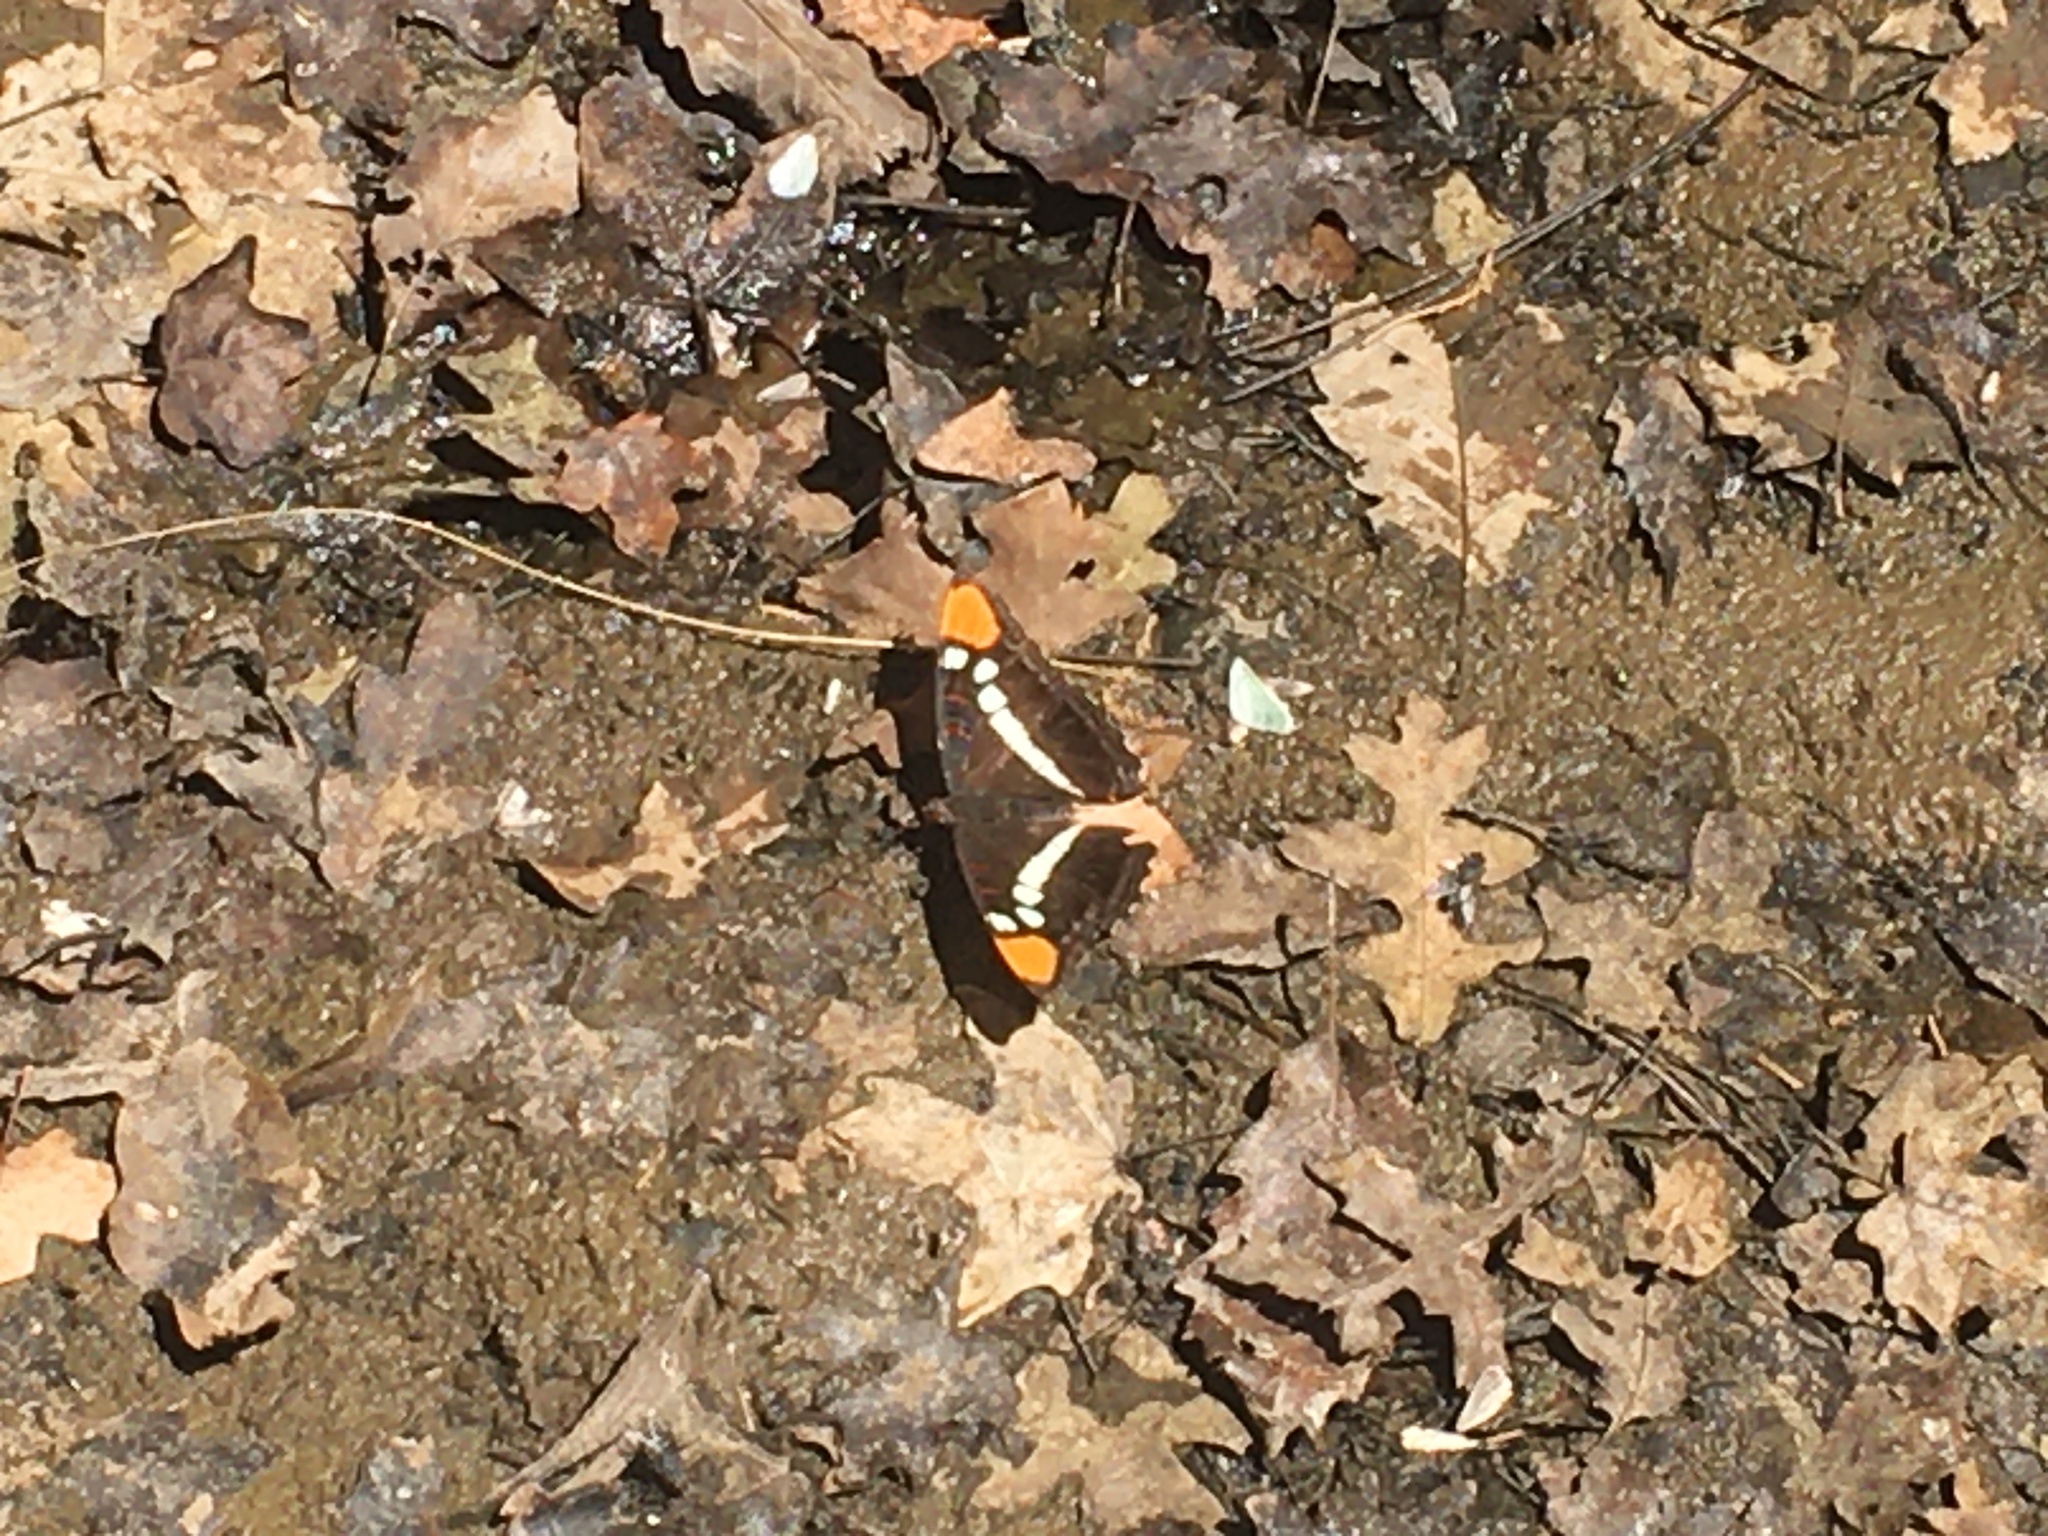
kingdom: Animalia
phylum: Arthropoda
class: Insecta
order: Lepidoptera
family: Nymphalidae
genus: Limenitis
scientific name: Limenitis bredowii
